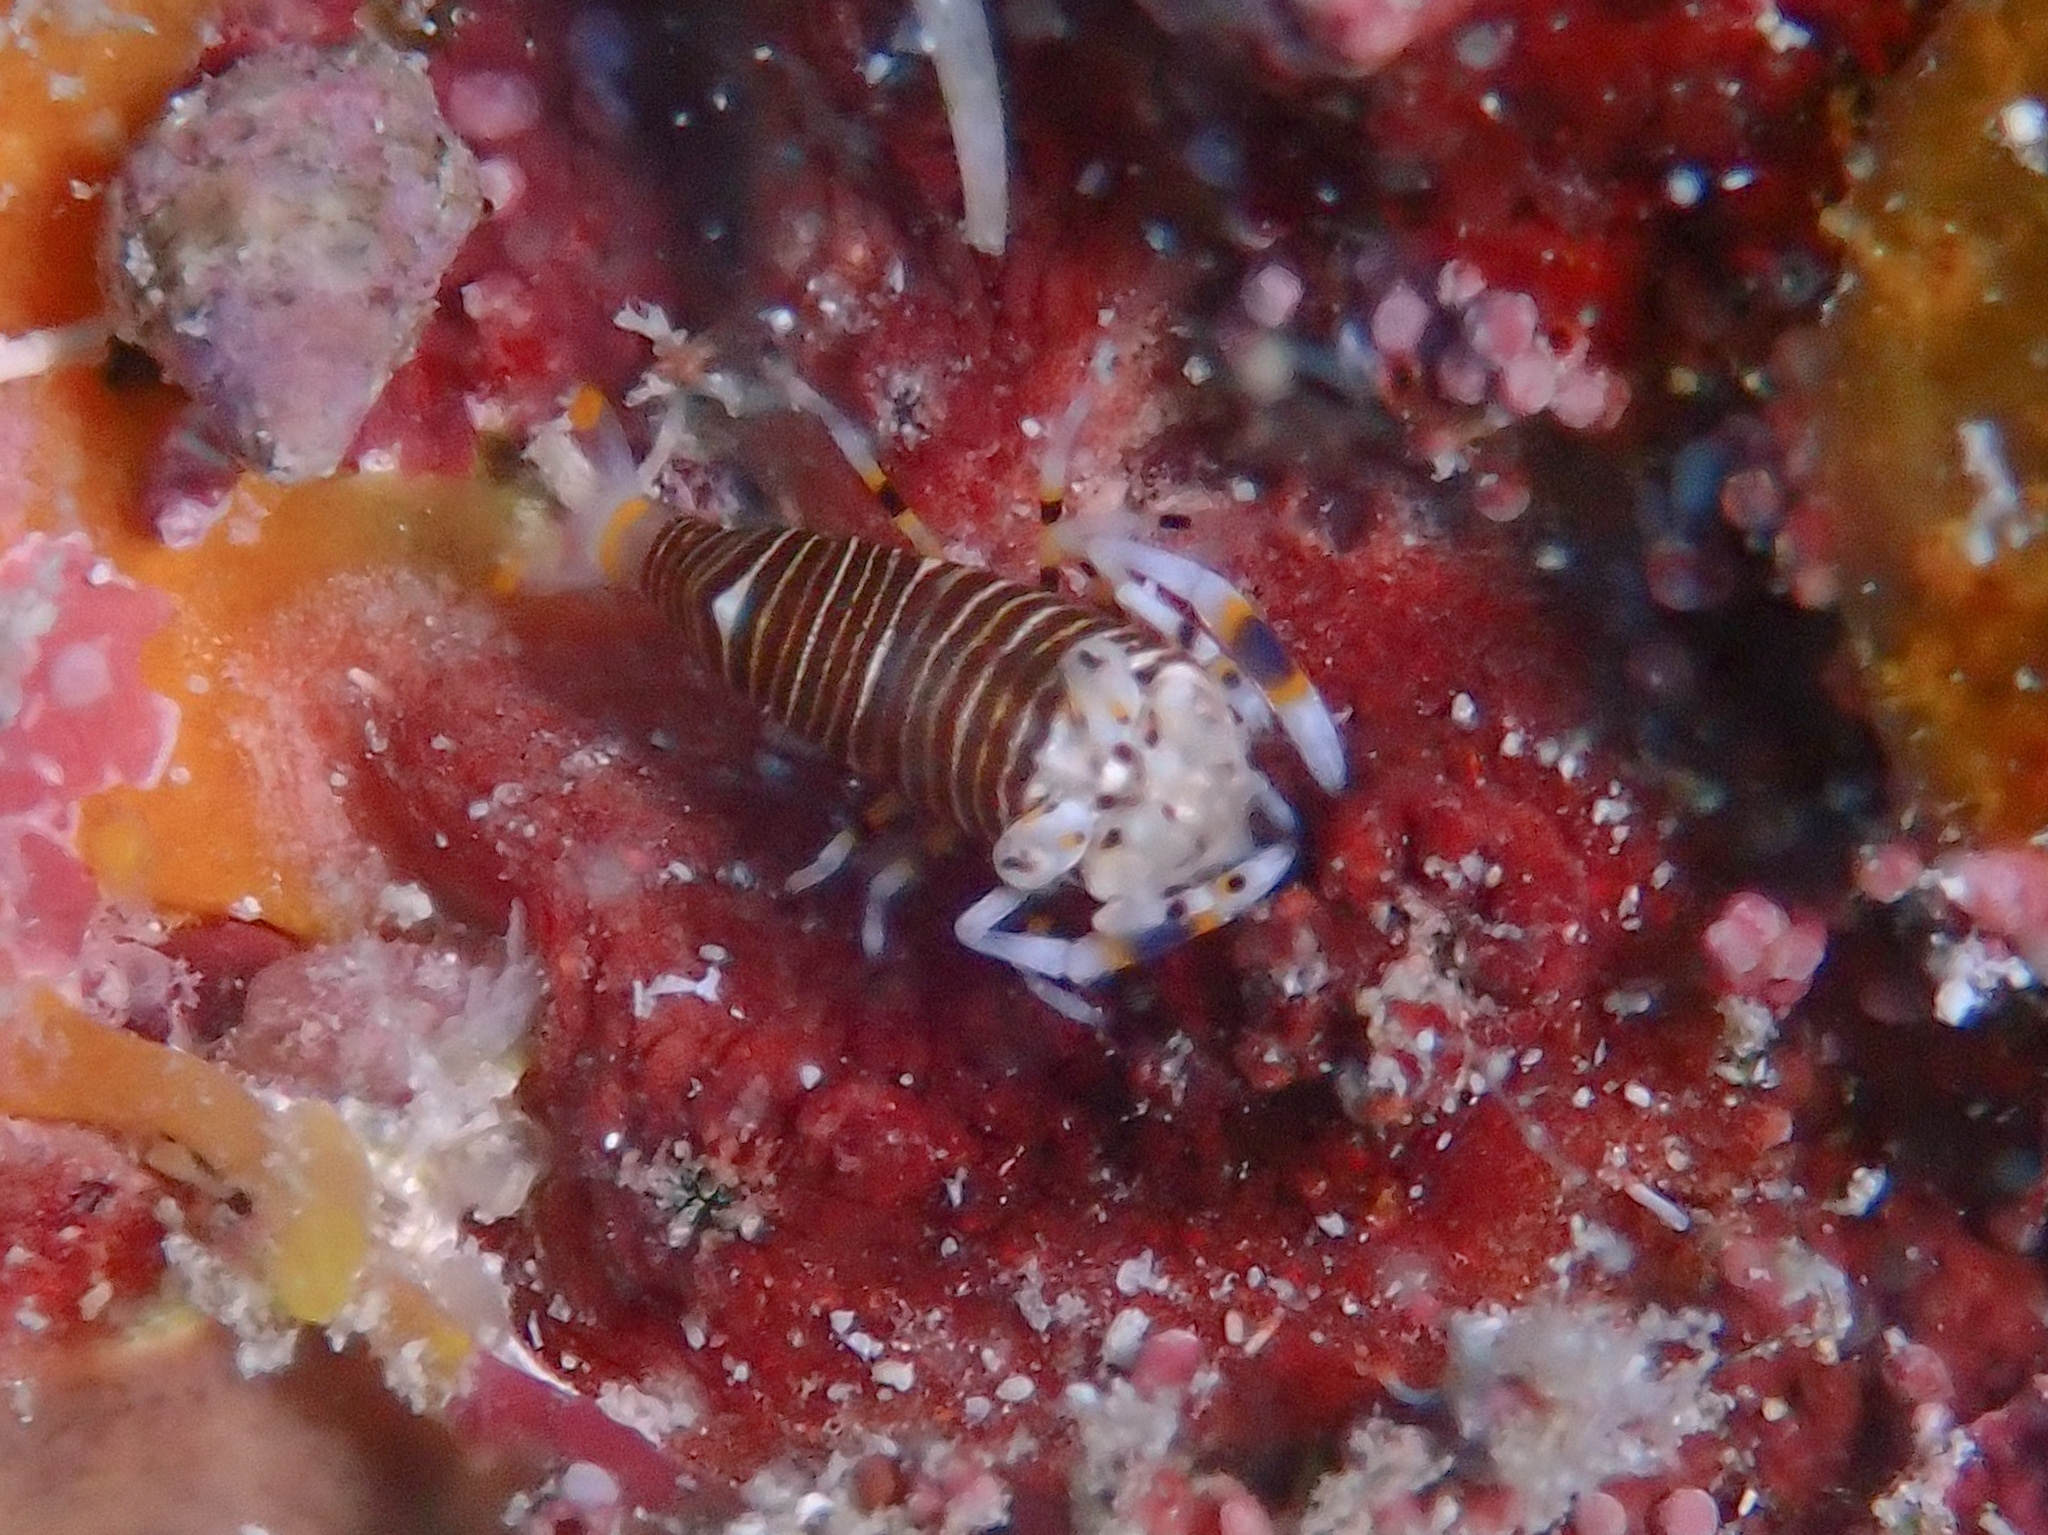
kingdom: Animalia
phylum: Arthropoda
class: Malacostraca
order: Decapoda
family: Palaemonidae
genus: Gnathophyllum
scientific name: Gnathophyllum americanum
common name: Bumblebee shrimp
